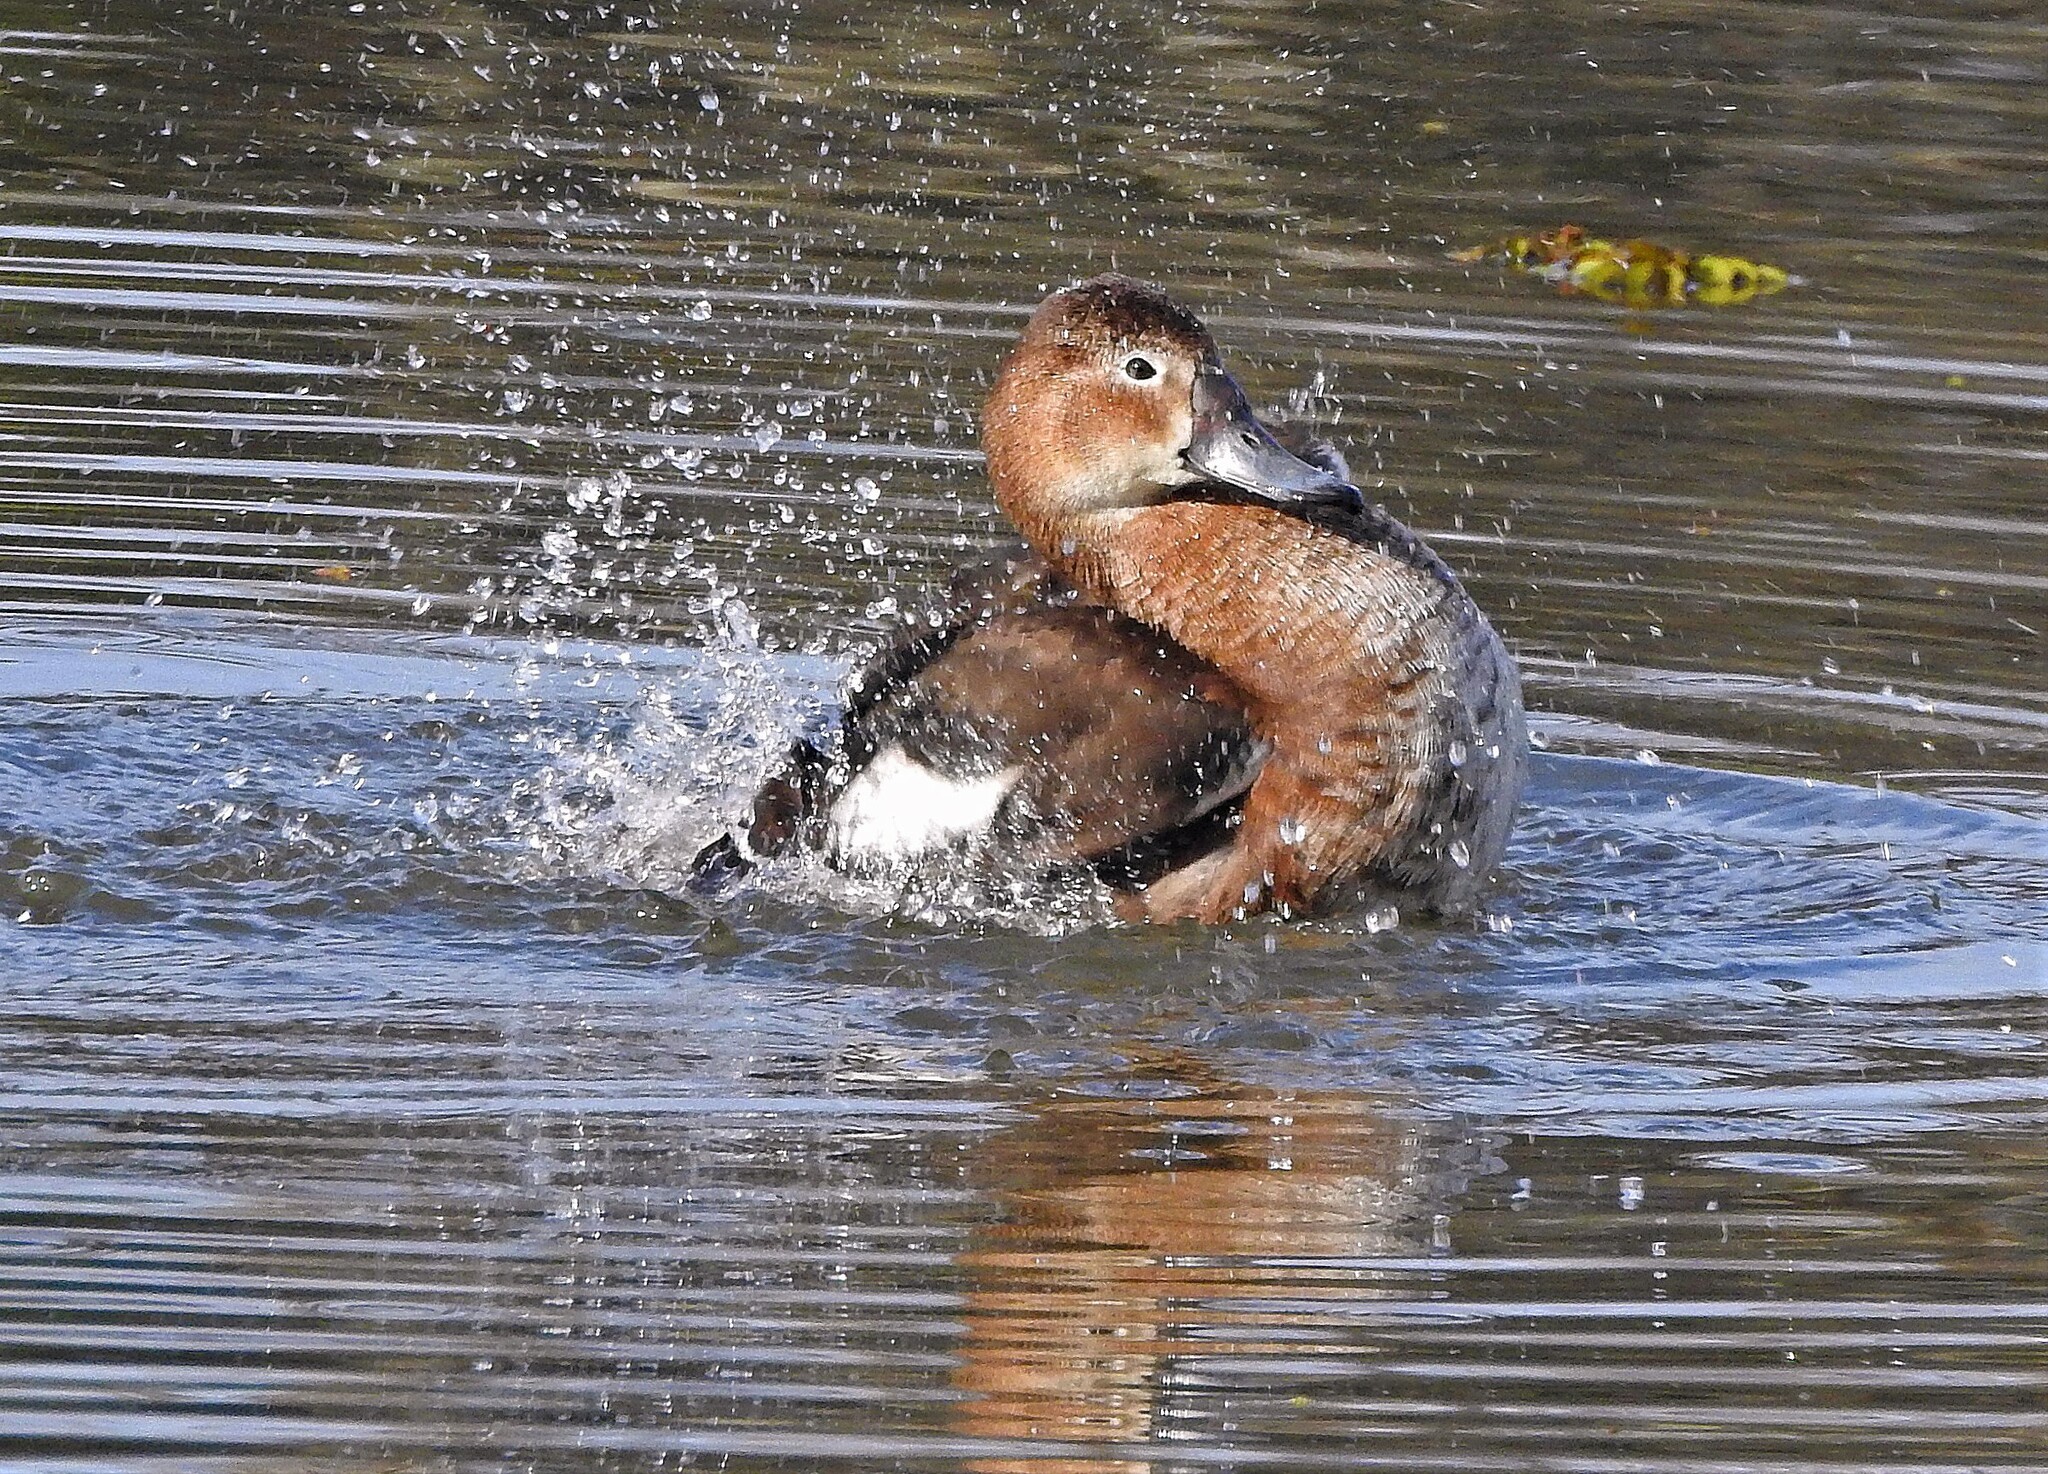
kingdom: Animalia
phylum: Chordata
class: Aves
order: Anseriformes
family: Anatidae
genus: Netta
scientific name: Netta peposaca
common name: Rosy-billed pochard
